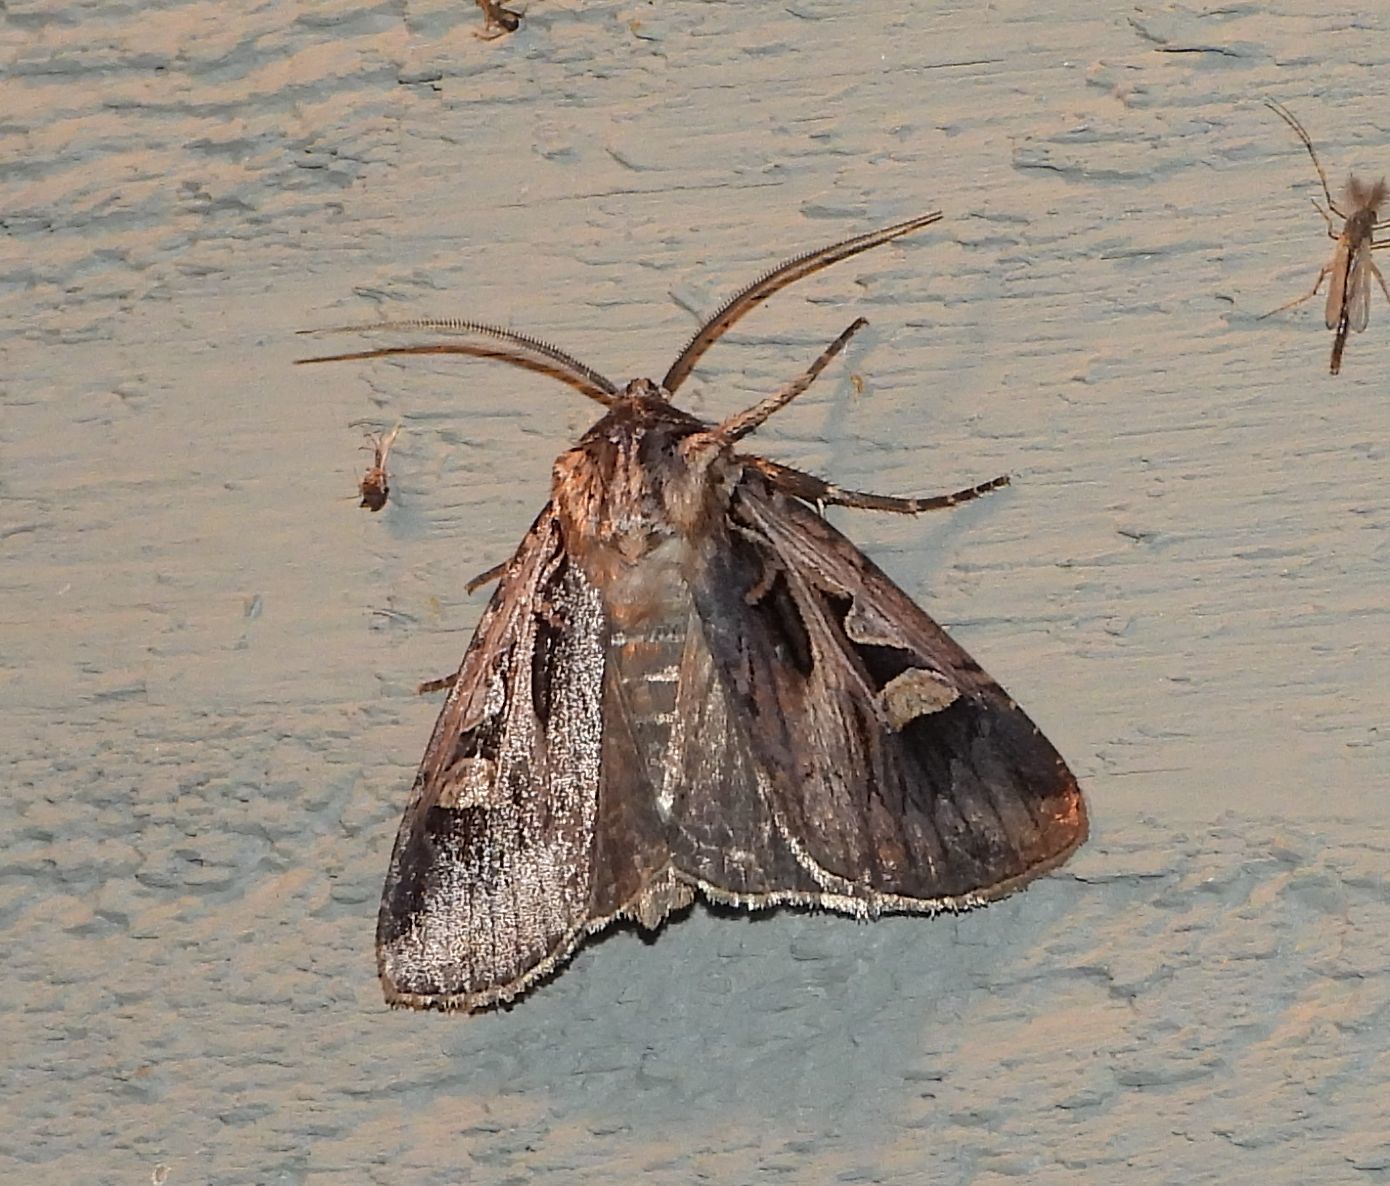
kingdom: Animalia
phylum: Arthropoda
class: Insecta
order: Lepidoptera
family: Noctuidae
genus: Feltia
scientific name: Feltia herilis
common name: Master's dart
